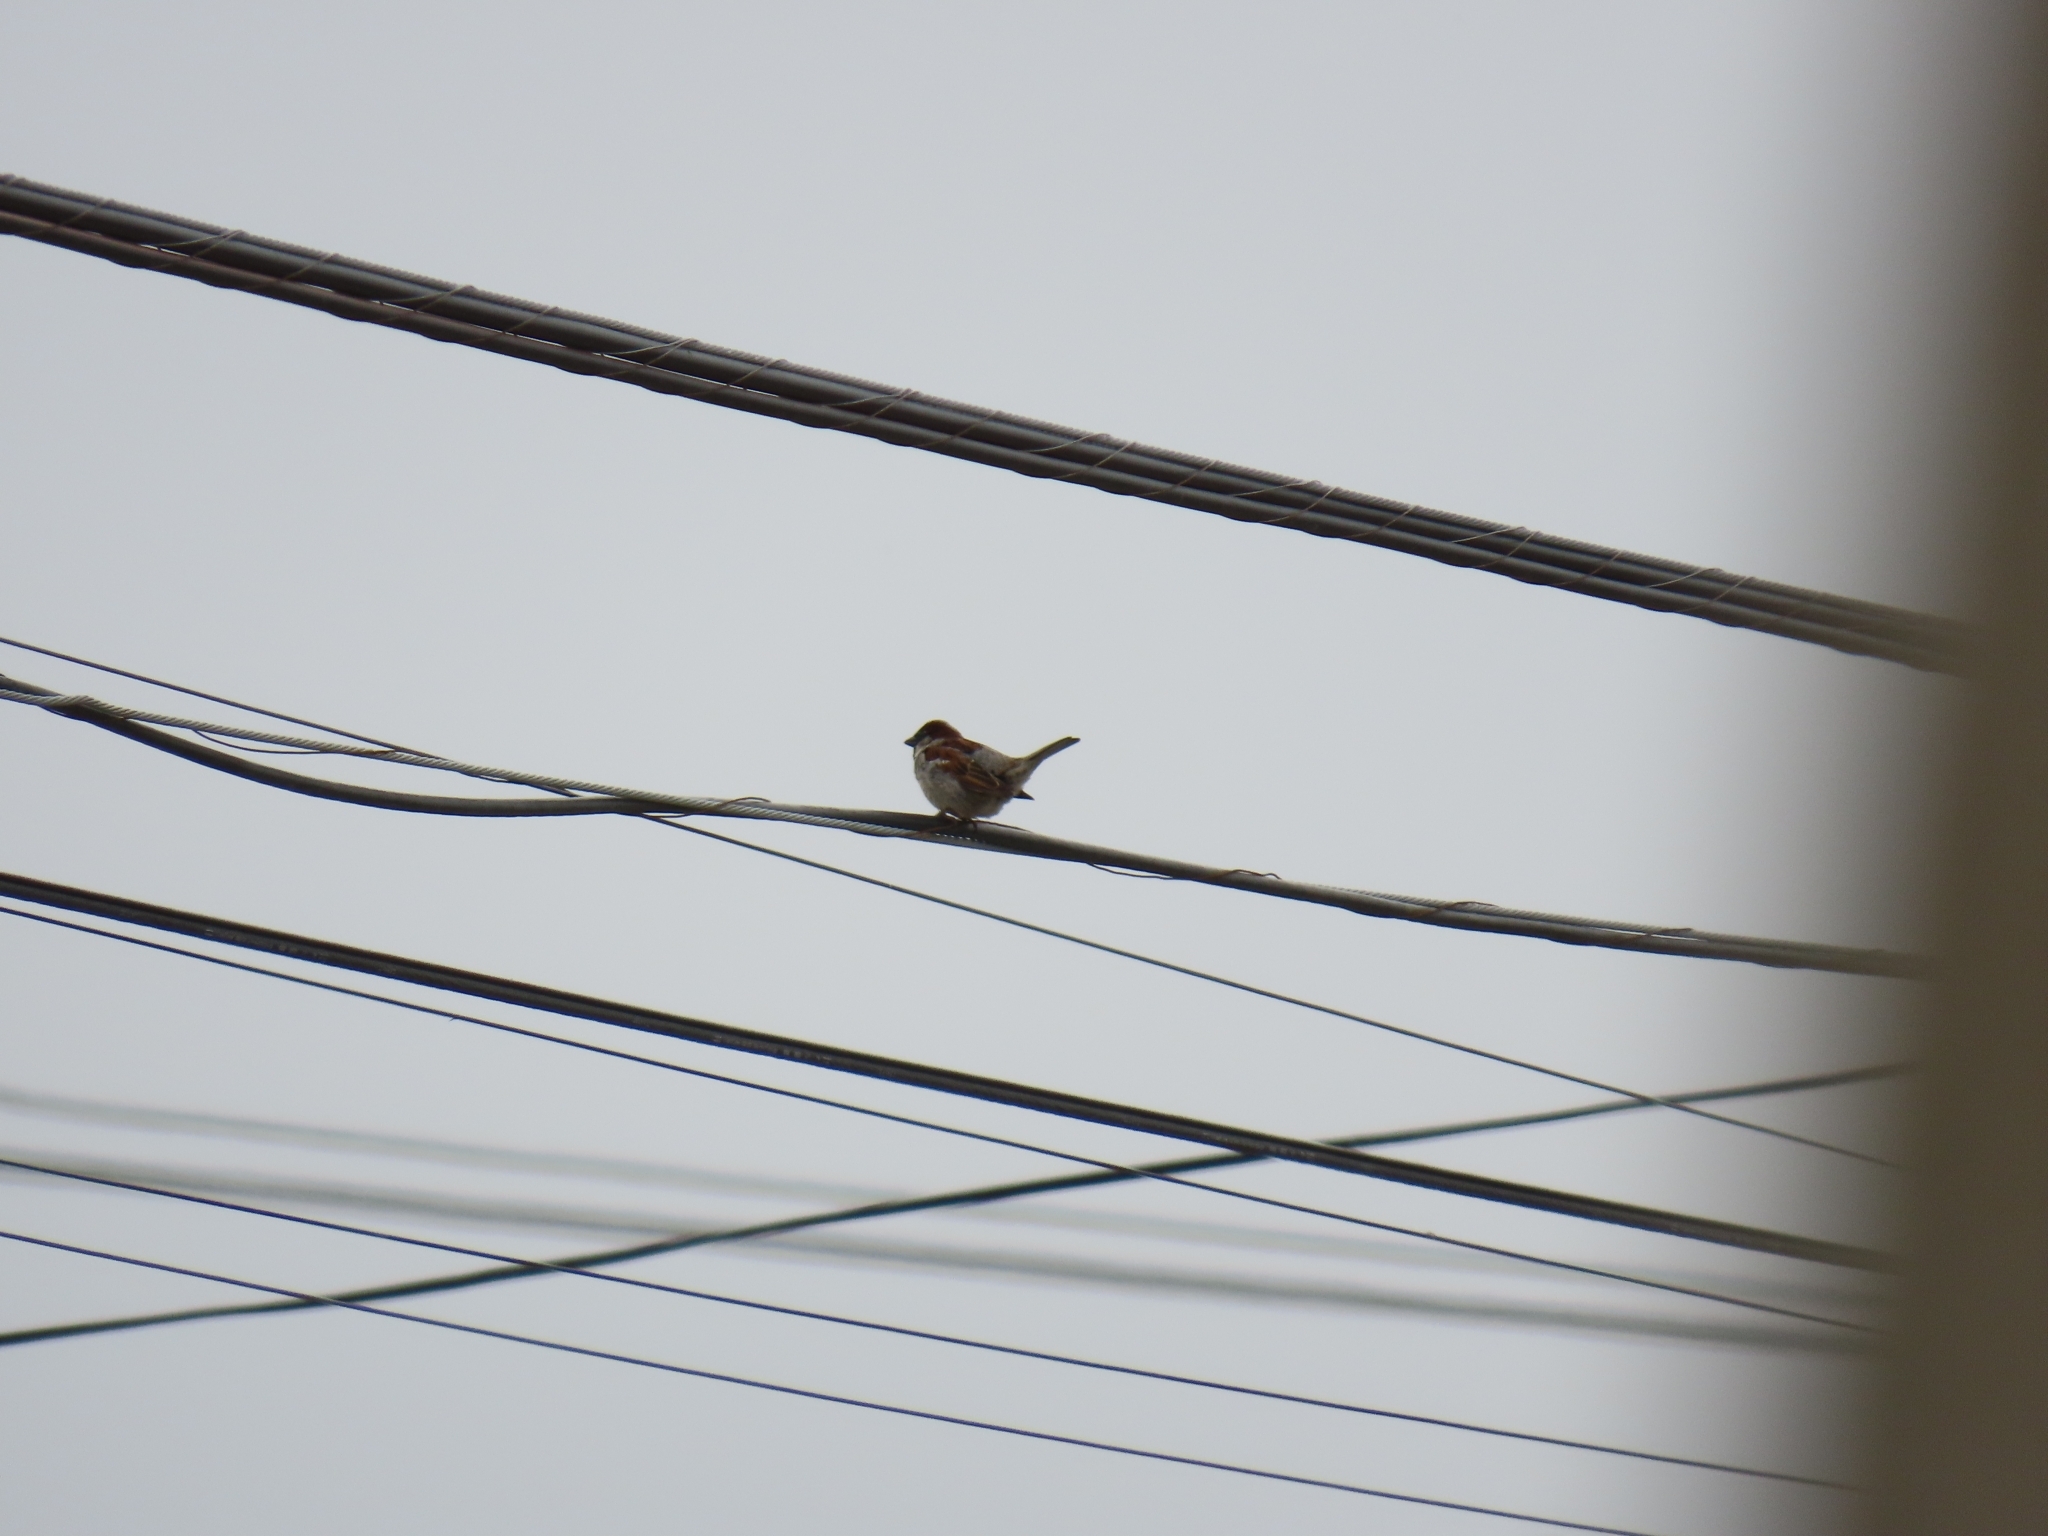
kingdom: Animalia
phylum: Chordata
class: Aves
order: Passeriformes
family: Passeridae
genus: Passer
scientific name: Passer domesticus
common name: House sparrow
